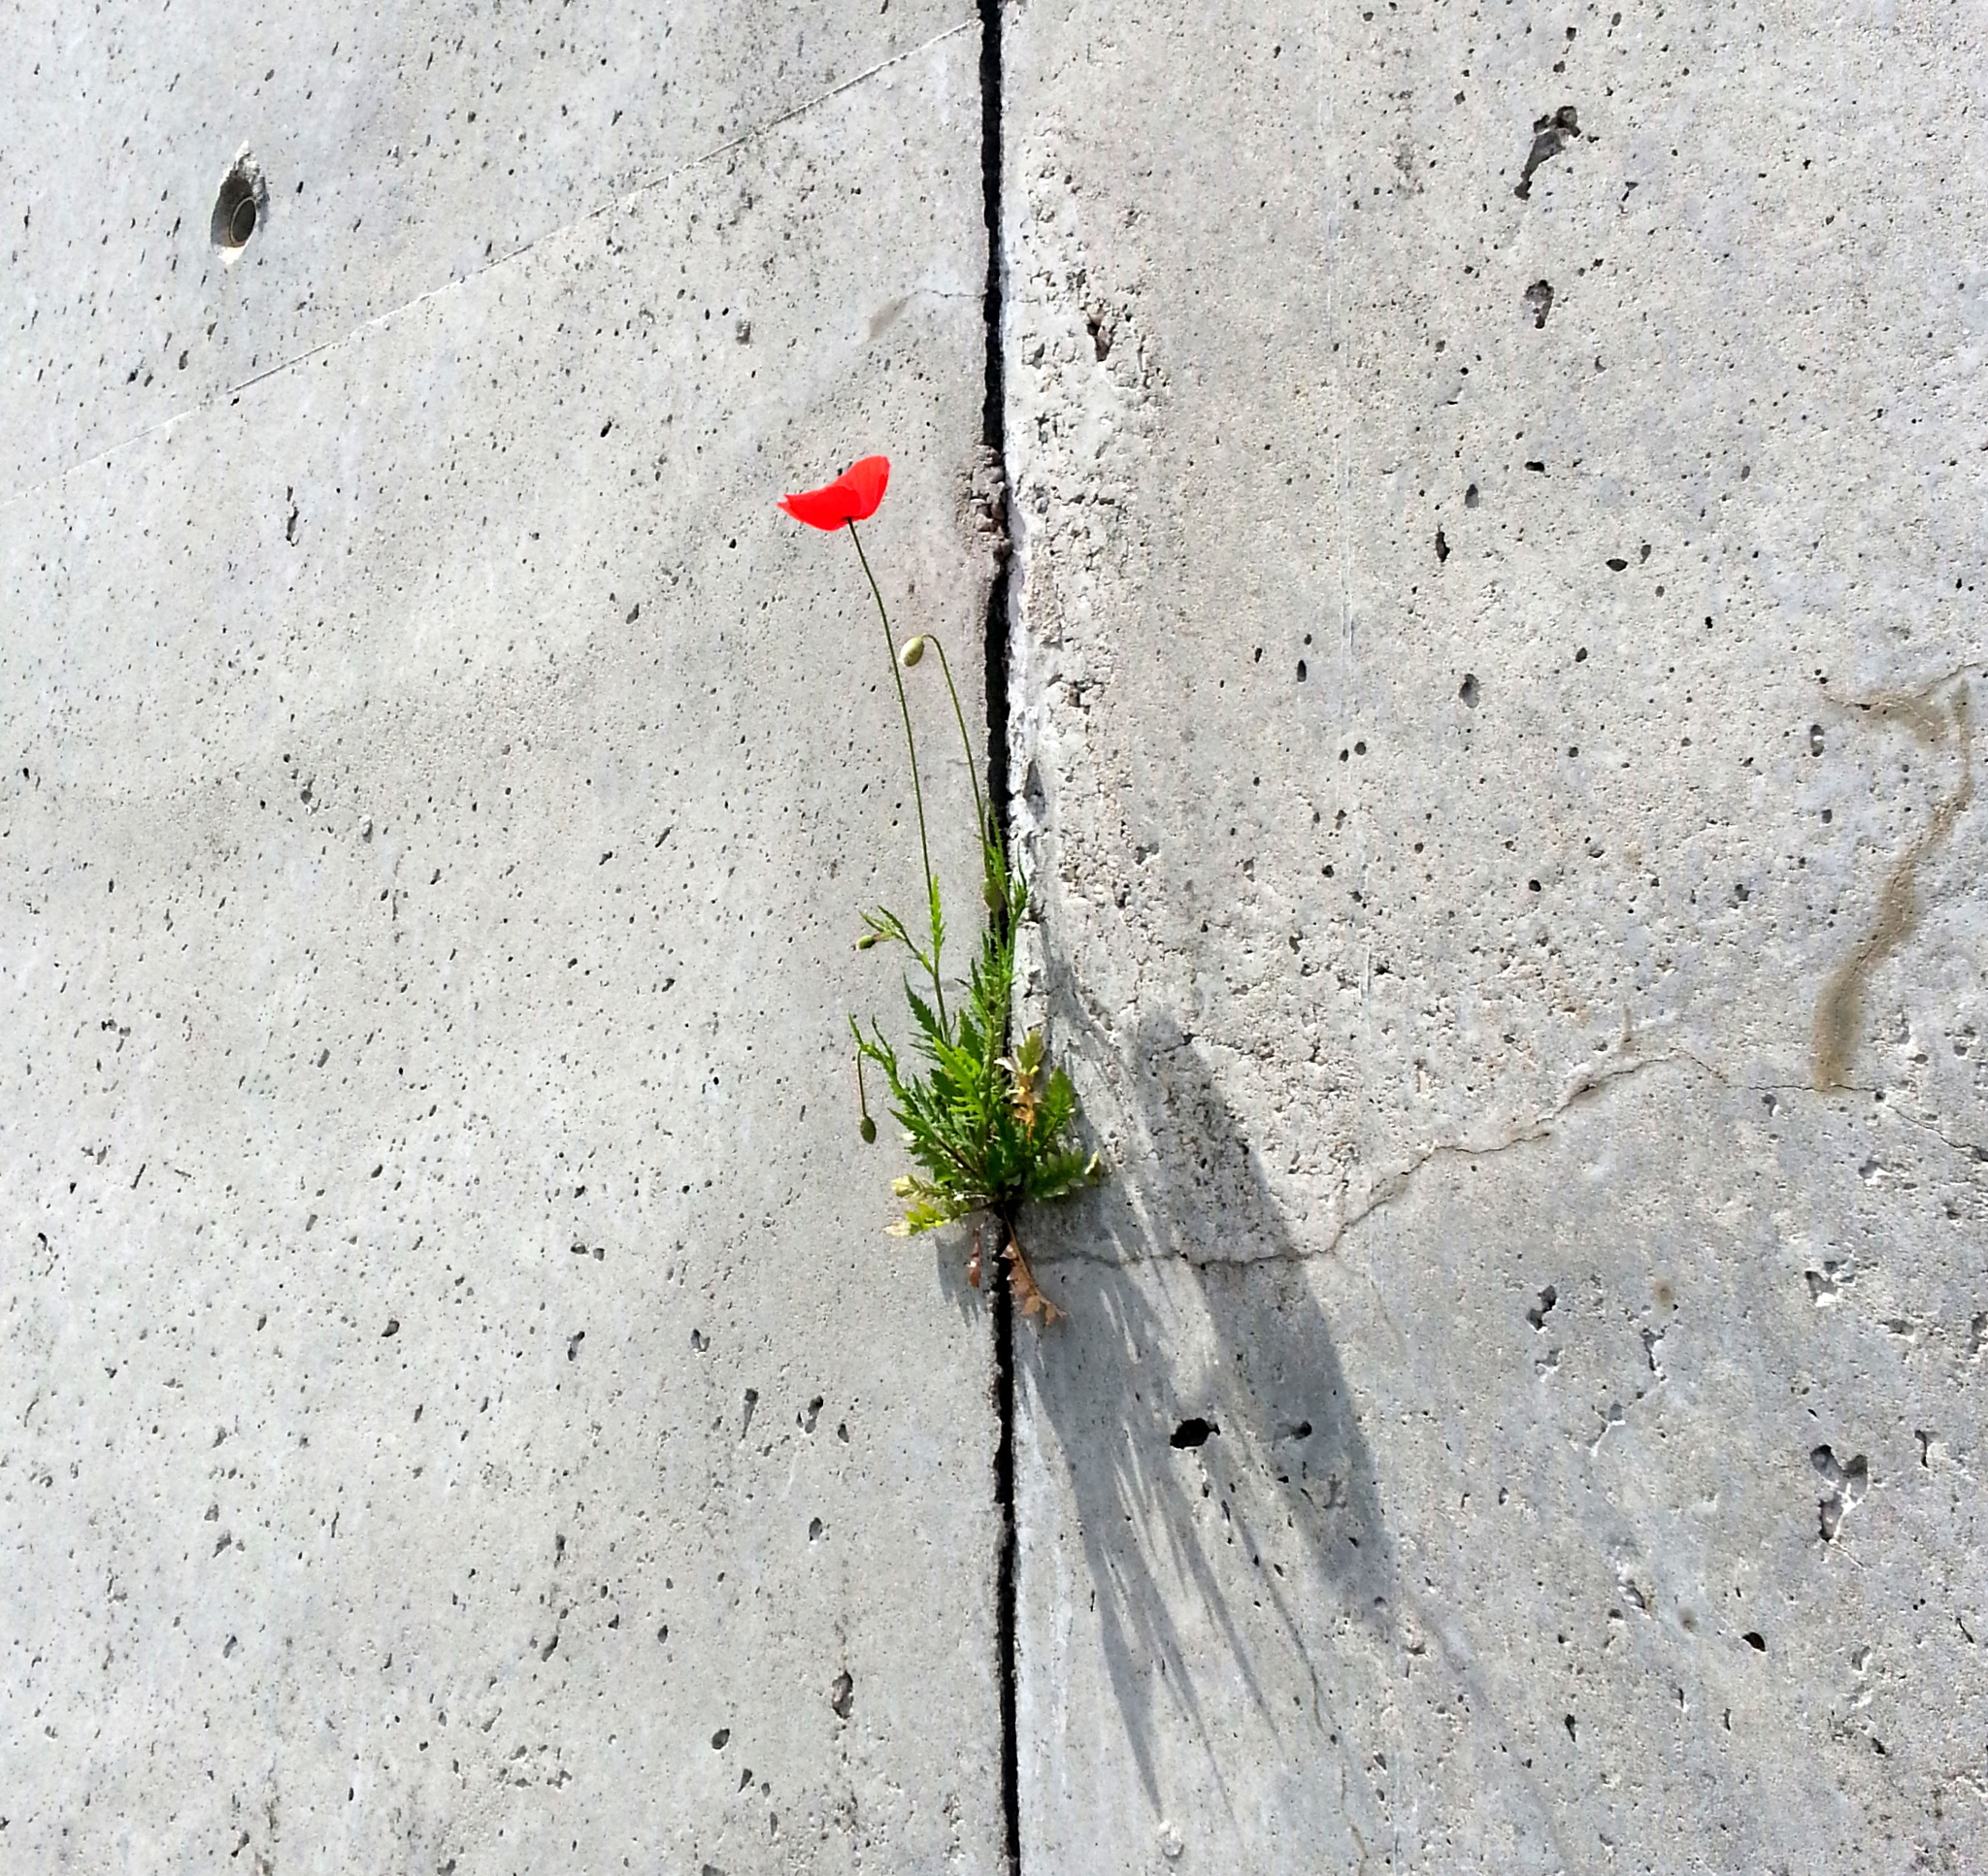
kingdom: Plantae
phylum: Tracheophyta
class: Magnoliopsida
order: Ranunculales
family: Papaveraceae
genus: Papaver
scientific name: Papaver rhoeas
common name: Corn poppy
